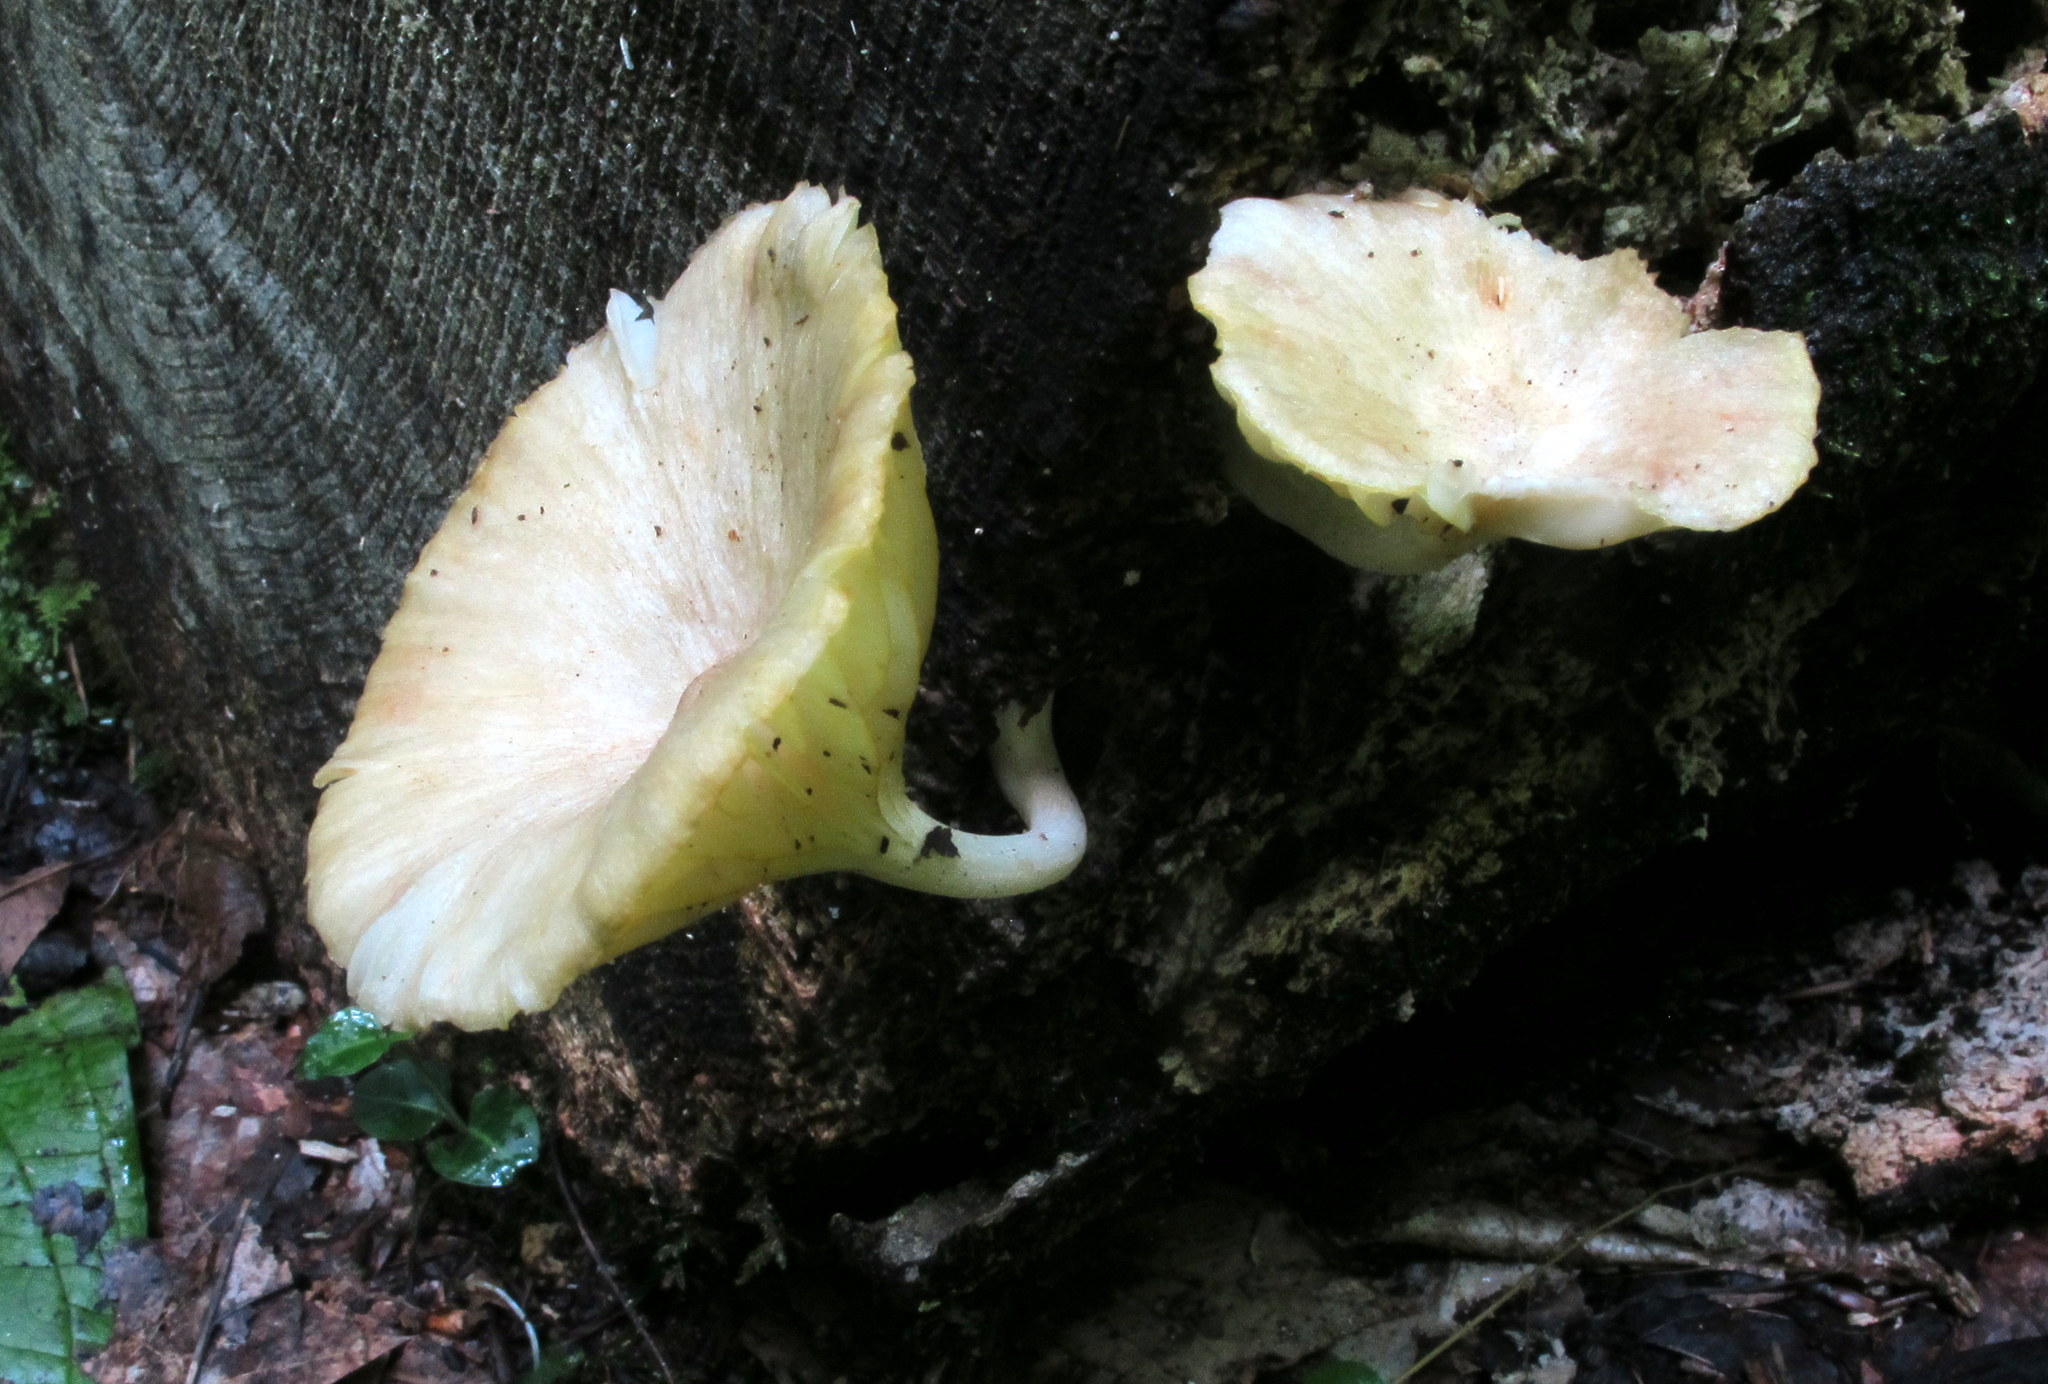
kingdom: Fungi
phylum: Basidiomycota
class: Agaricomycetes
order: Agaricales
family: Marasmiaceae
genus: Gerronema
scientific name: Gerronema strombodes
